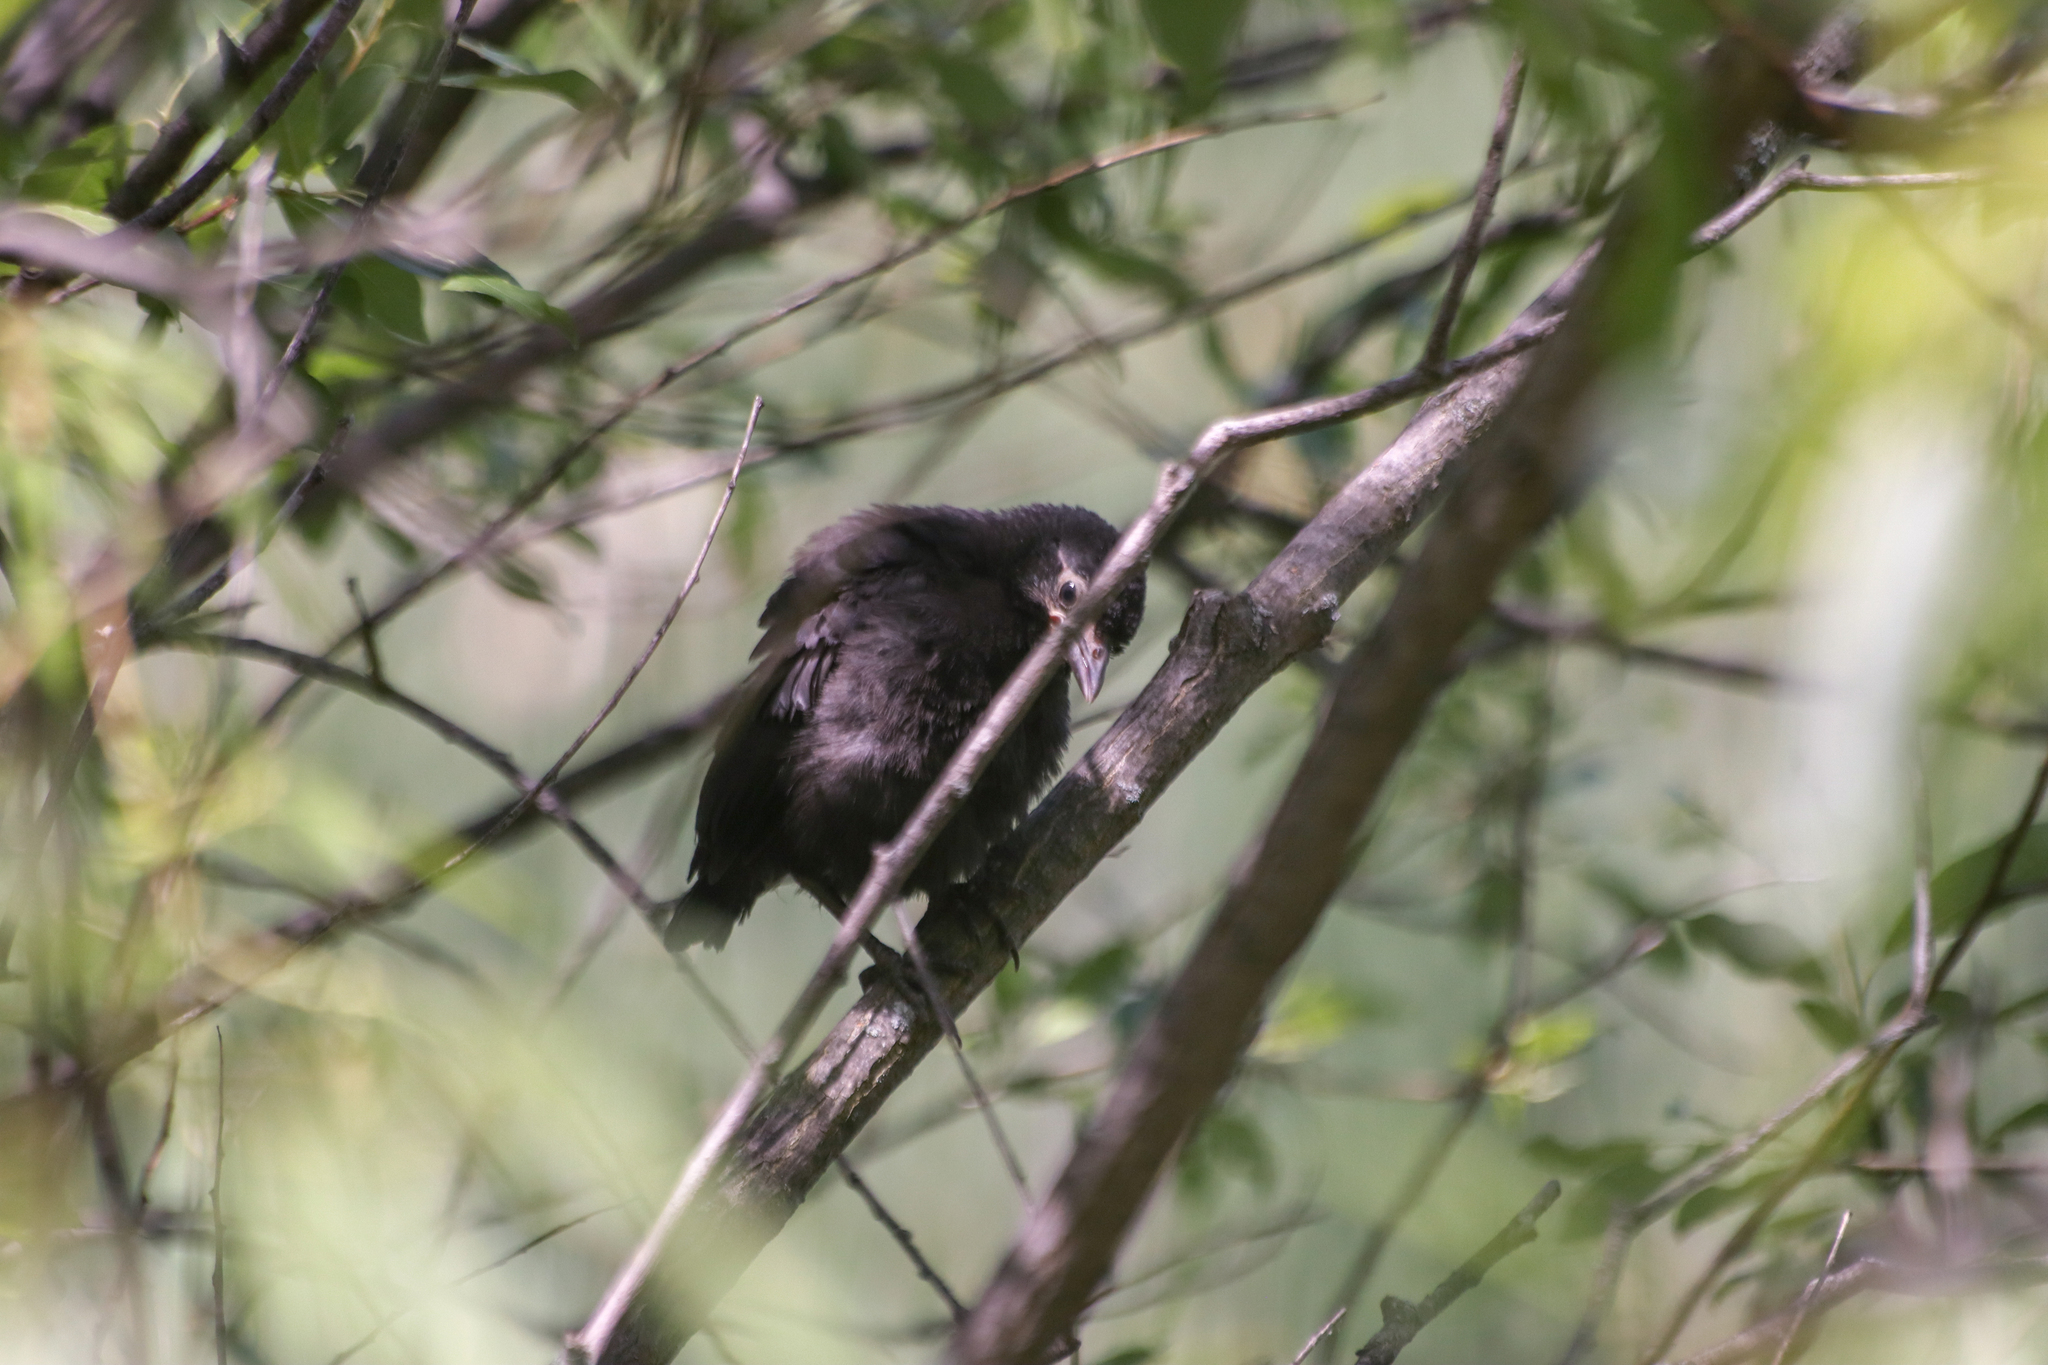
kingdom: Animalia
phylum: Chordata
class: Aves
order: Passeriformes
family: Icteridae
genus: Quiscalus
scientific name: Quiscalus quiscula
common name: Common grackle
